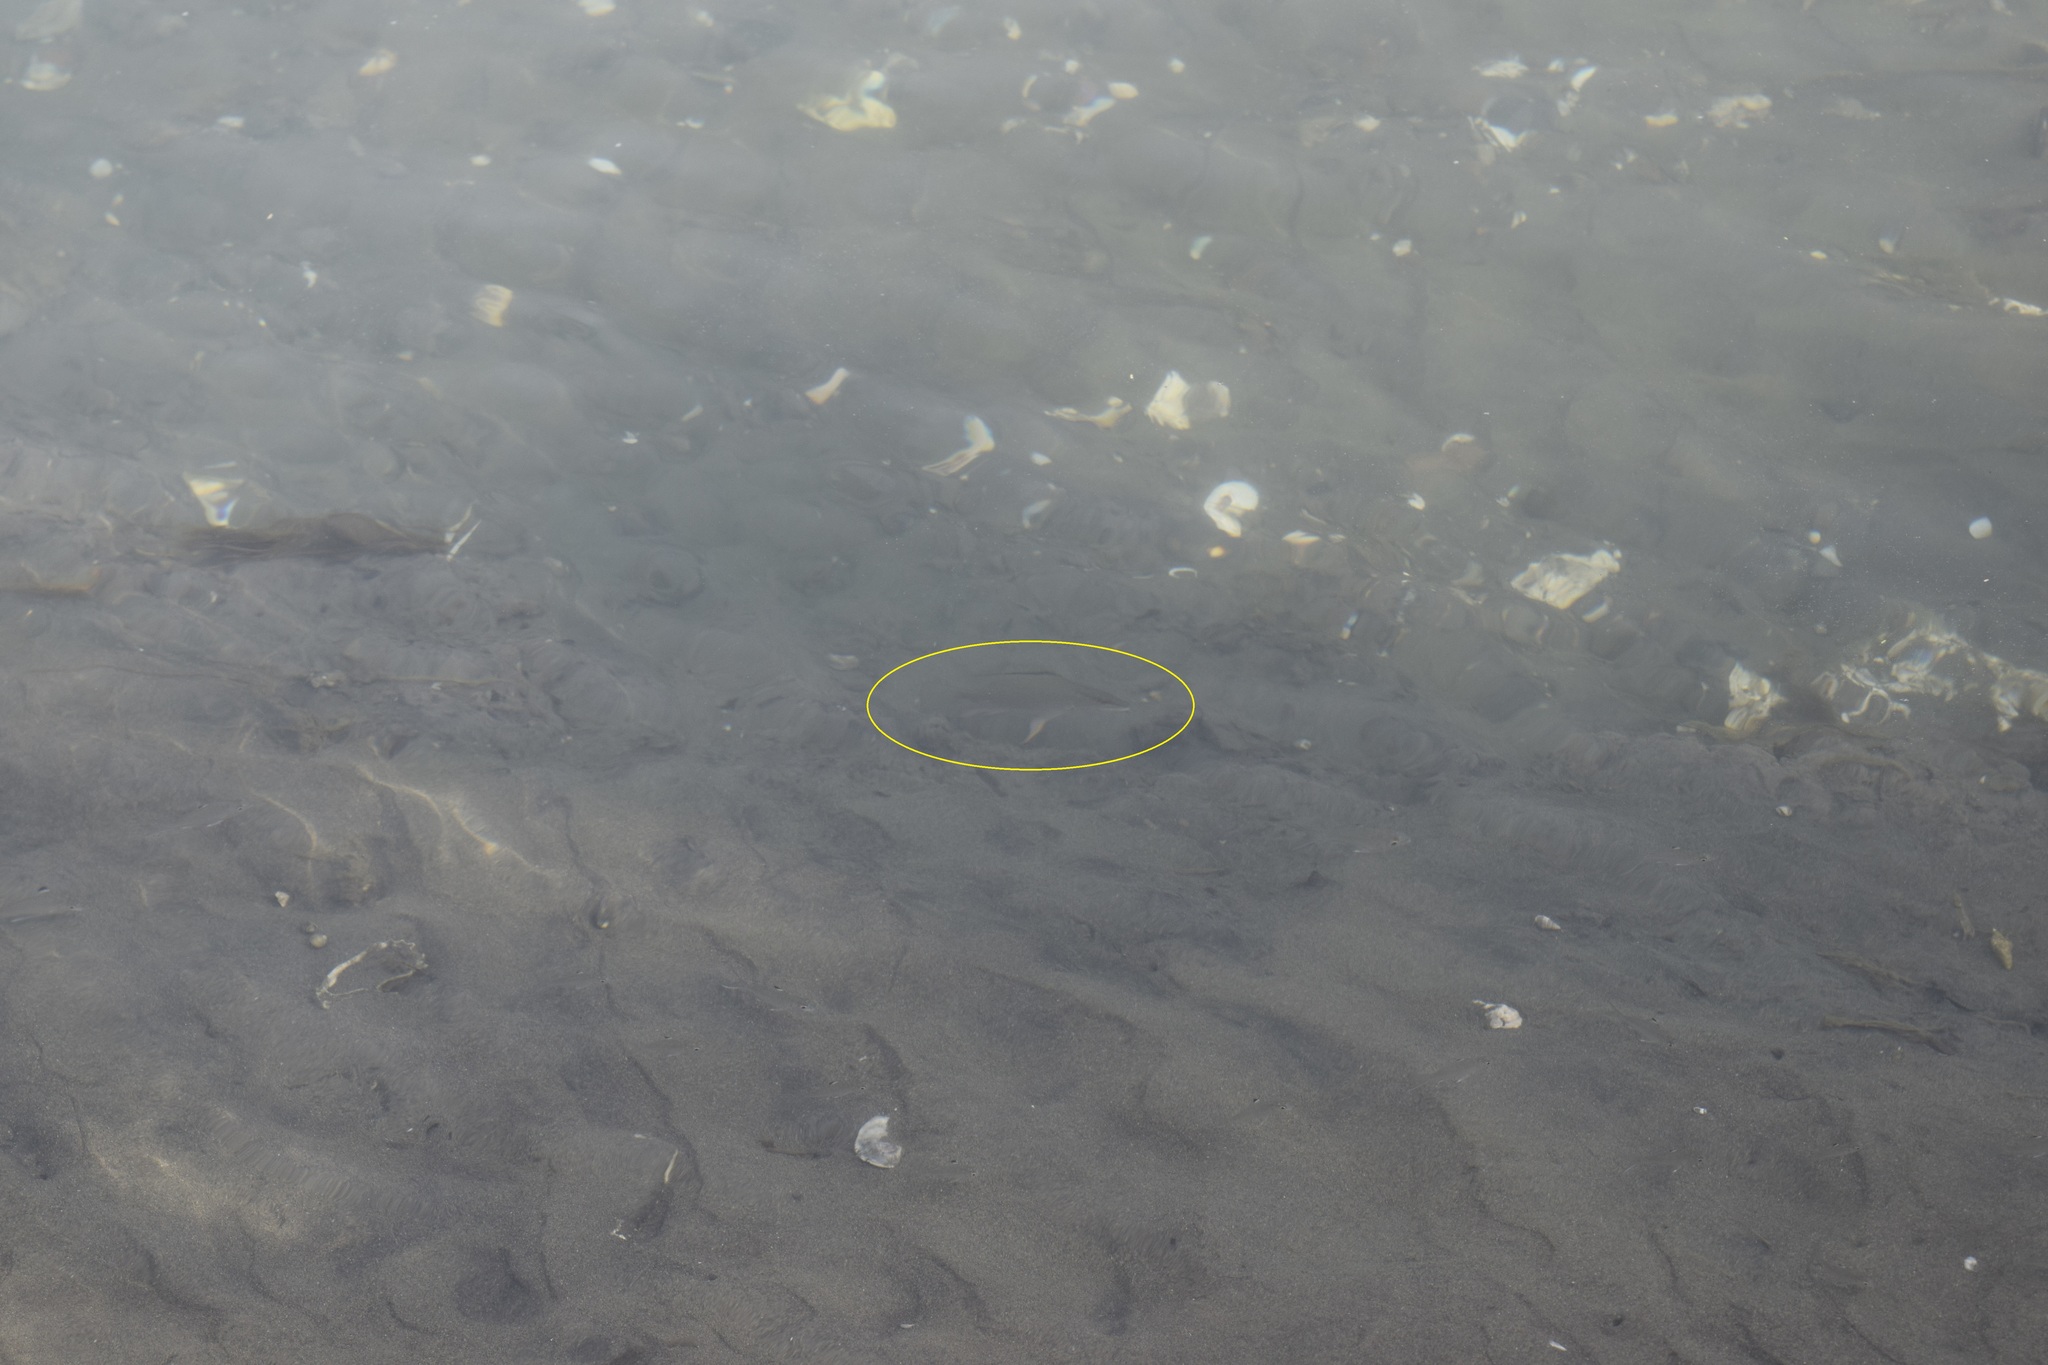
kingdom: Animalia
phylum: Chordata
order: Perciformes
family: Lutjanidae
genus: Lutjanus
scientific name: Lutjanus griseus
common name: Gray snapper
